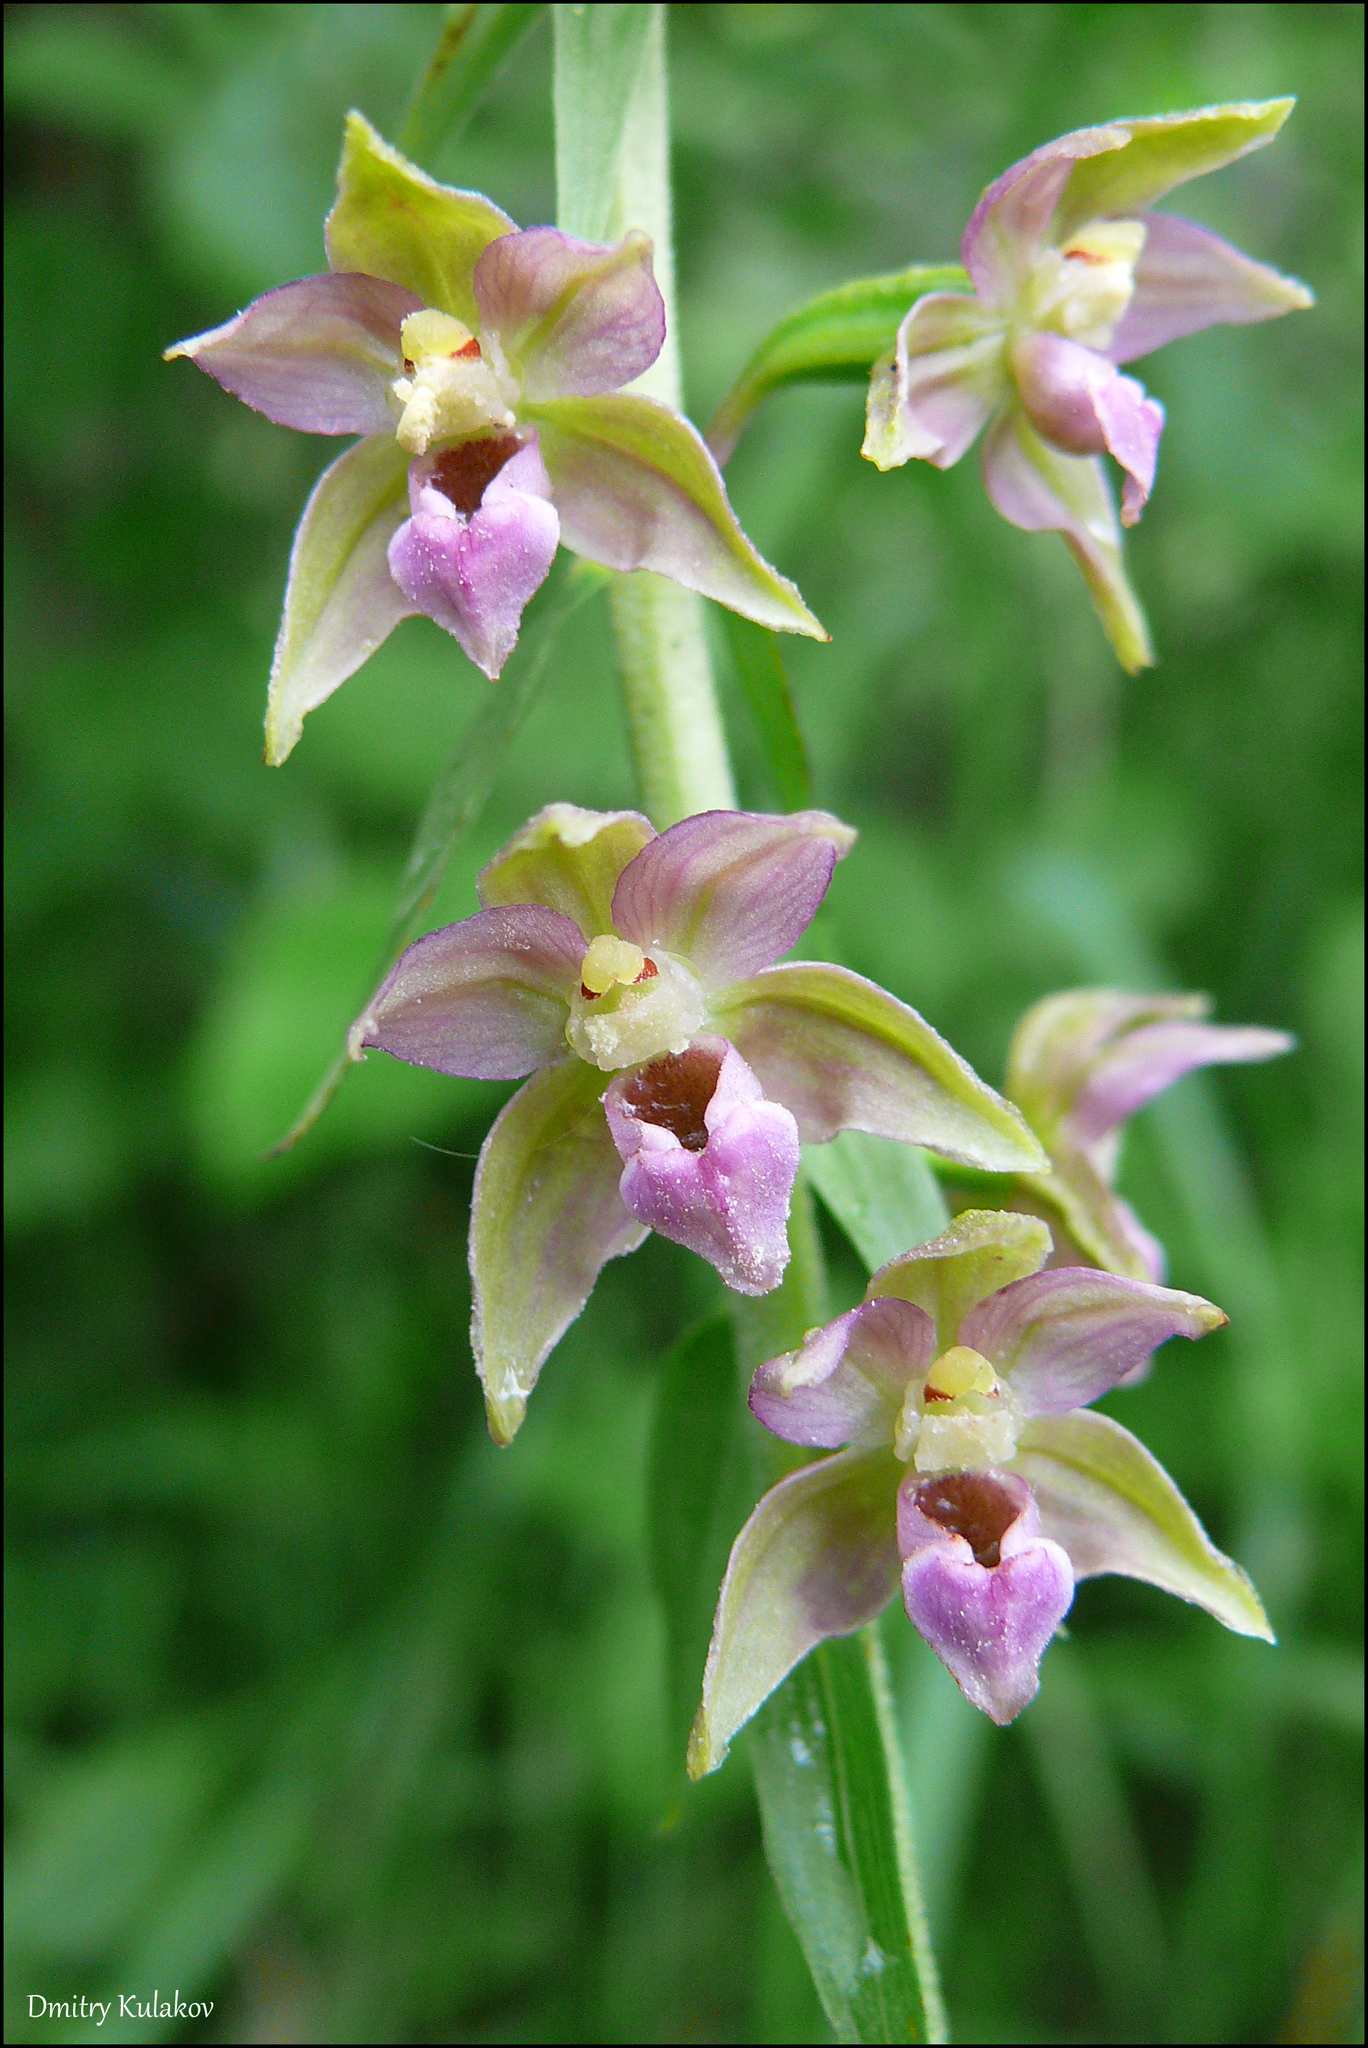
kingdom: Plantae
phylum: Tracheophyta
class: Liliopsida
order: Asparagales
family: Orchidaceae
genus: Epipactis
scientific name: Epipactis helleborine
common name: Broad-leaved helleborine
